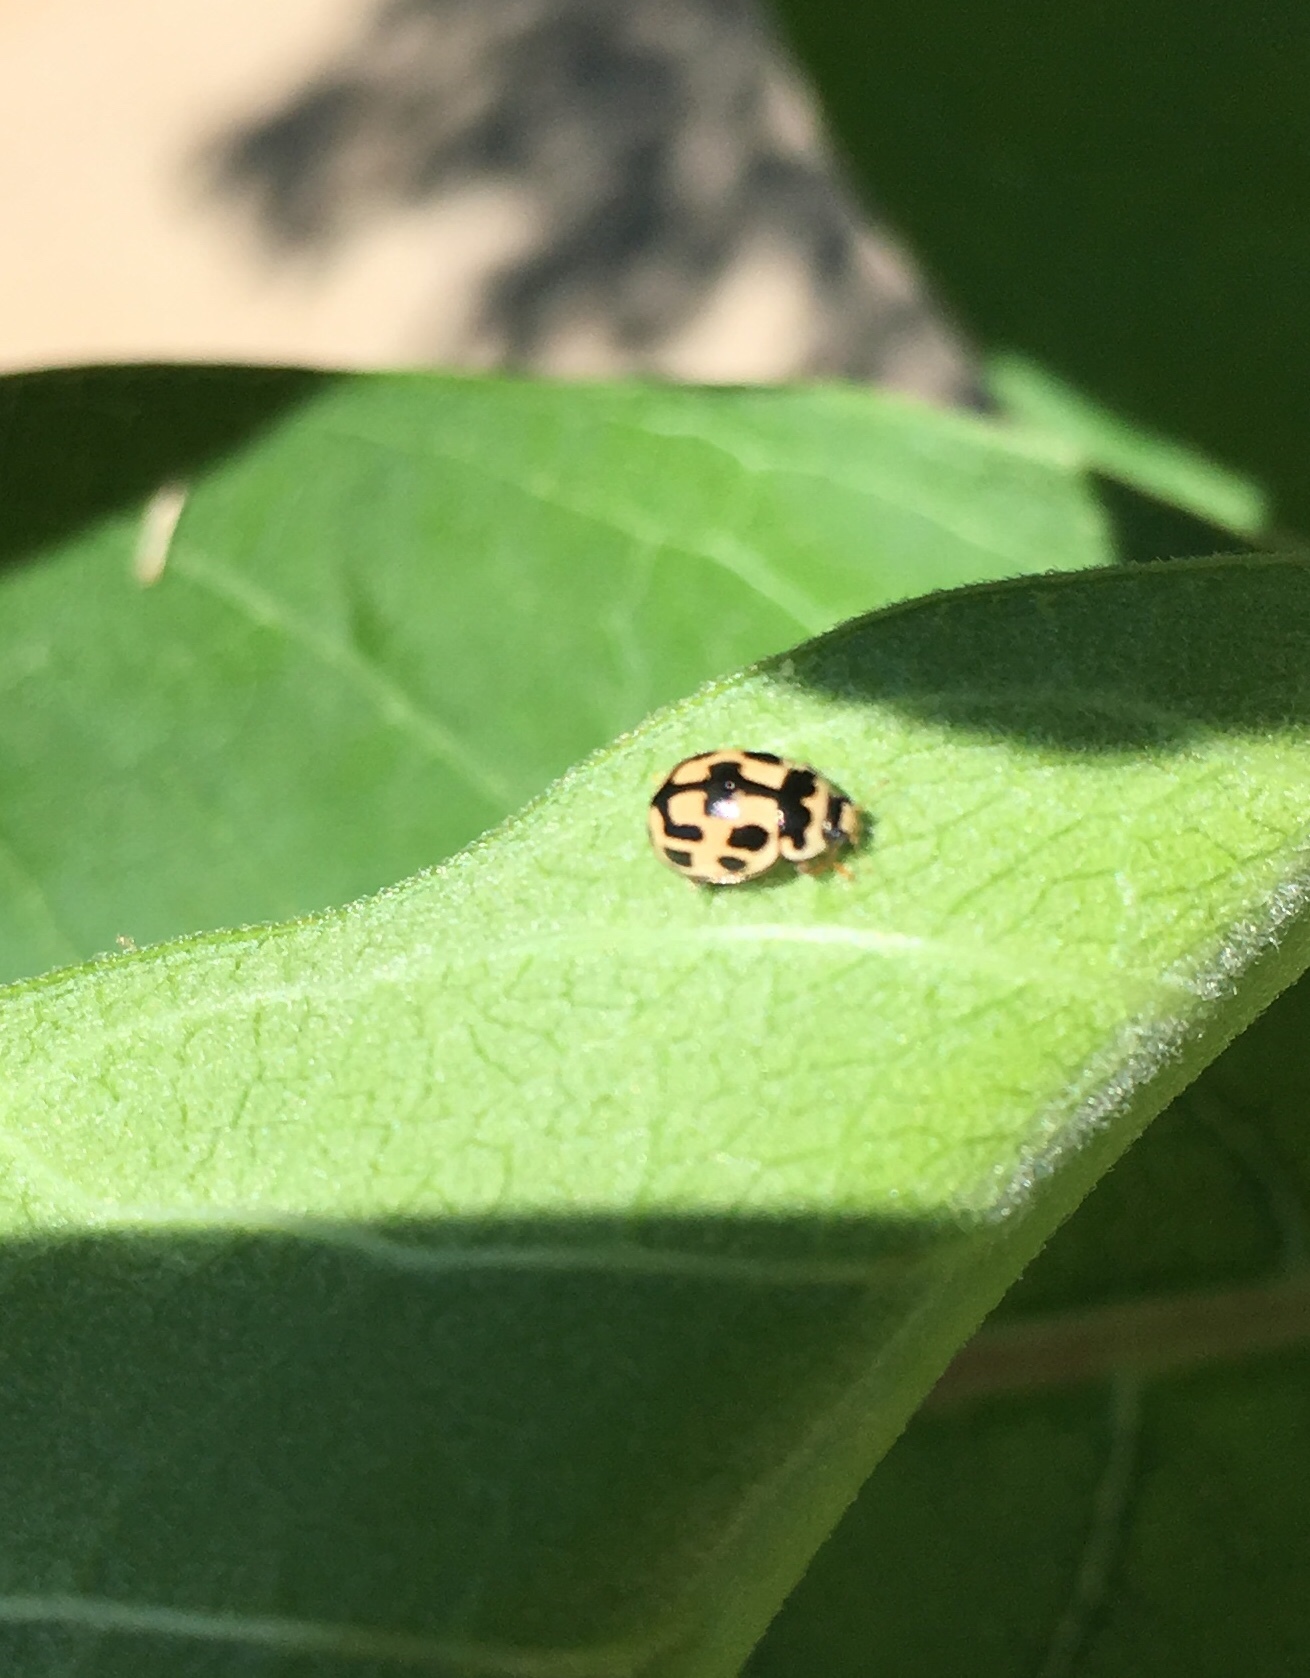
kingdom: Animalia
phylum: Arthropoda
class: Insecta
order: Coleoptera
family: Coccinellidae
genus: Propylaea
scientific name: Propylaea quatuordecimpunctata
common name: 14-spotted ladybird beetle
